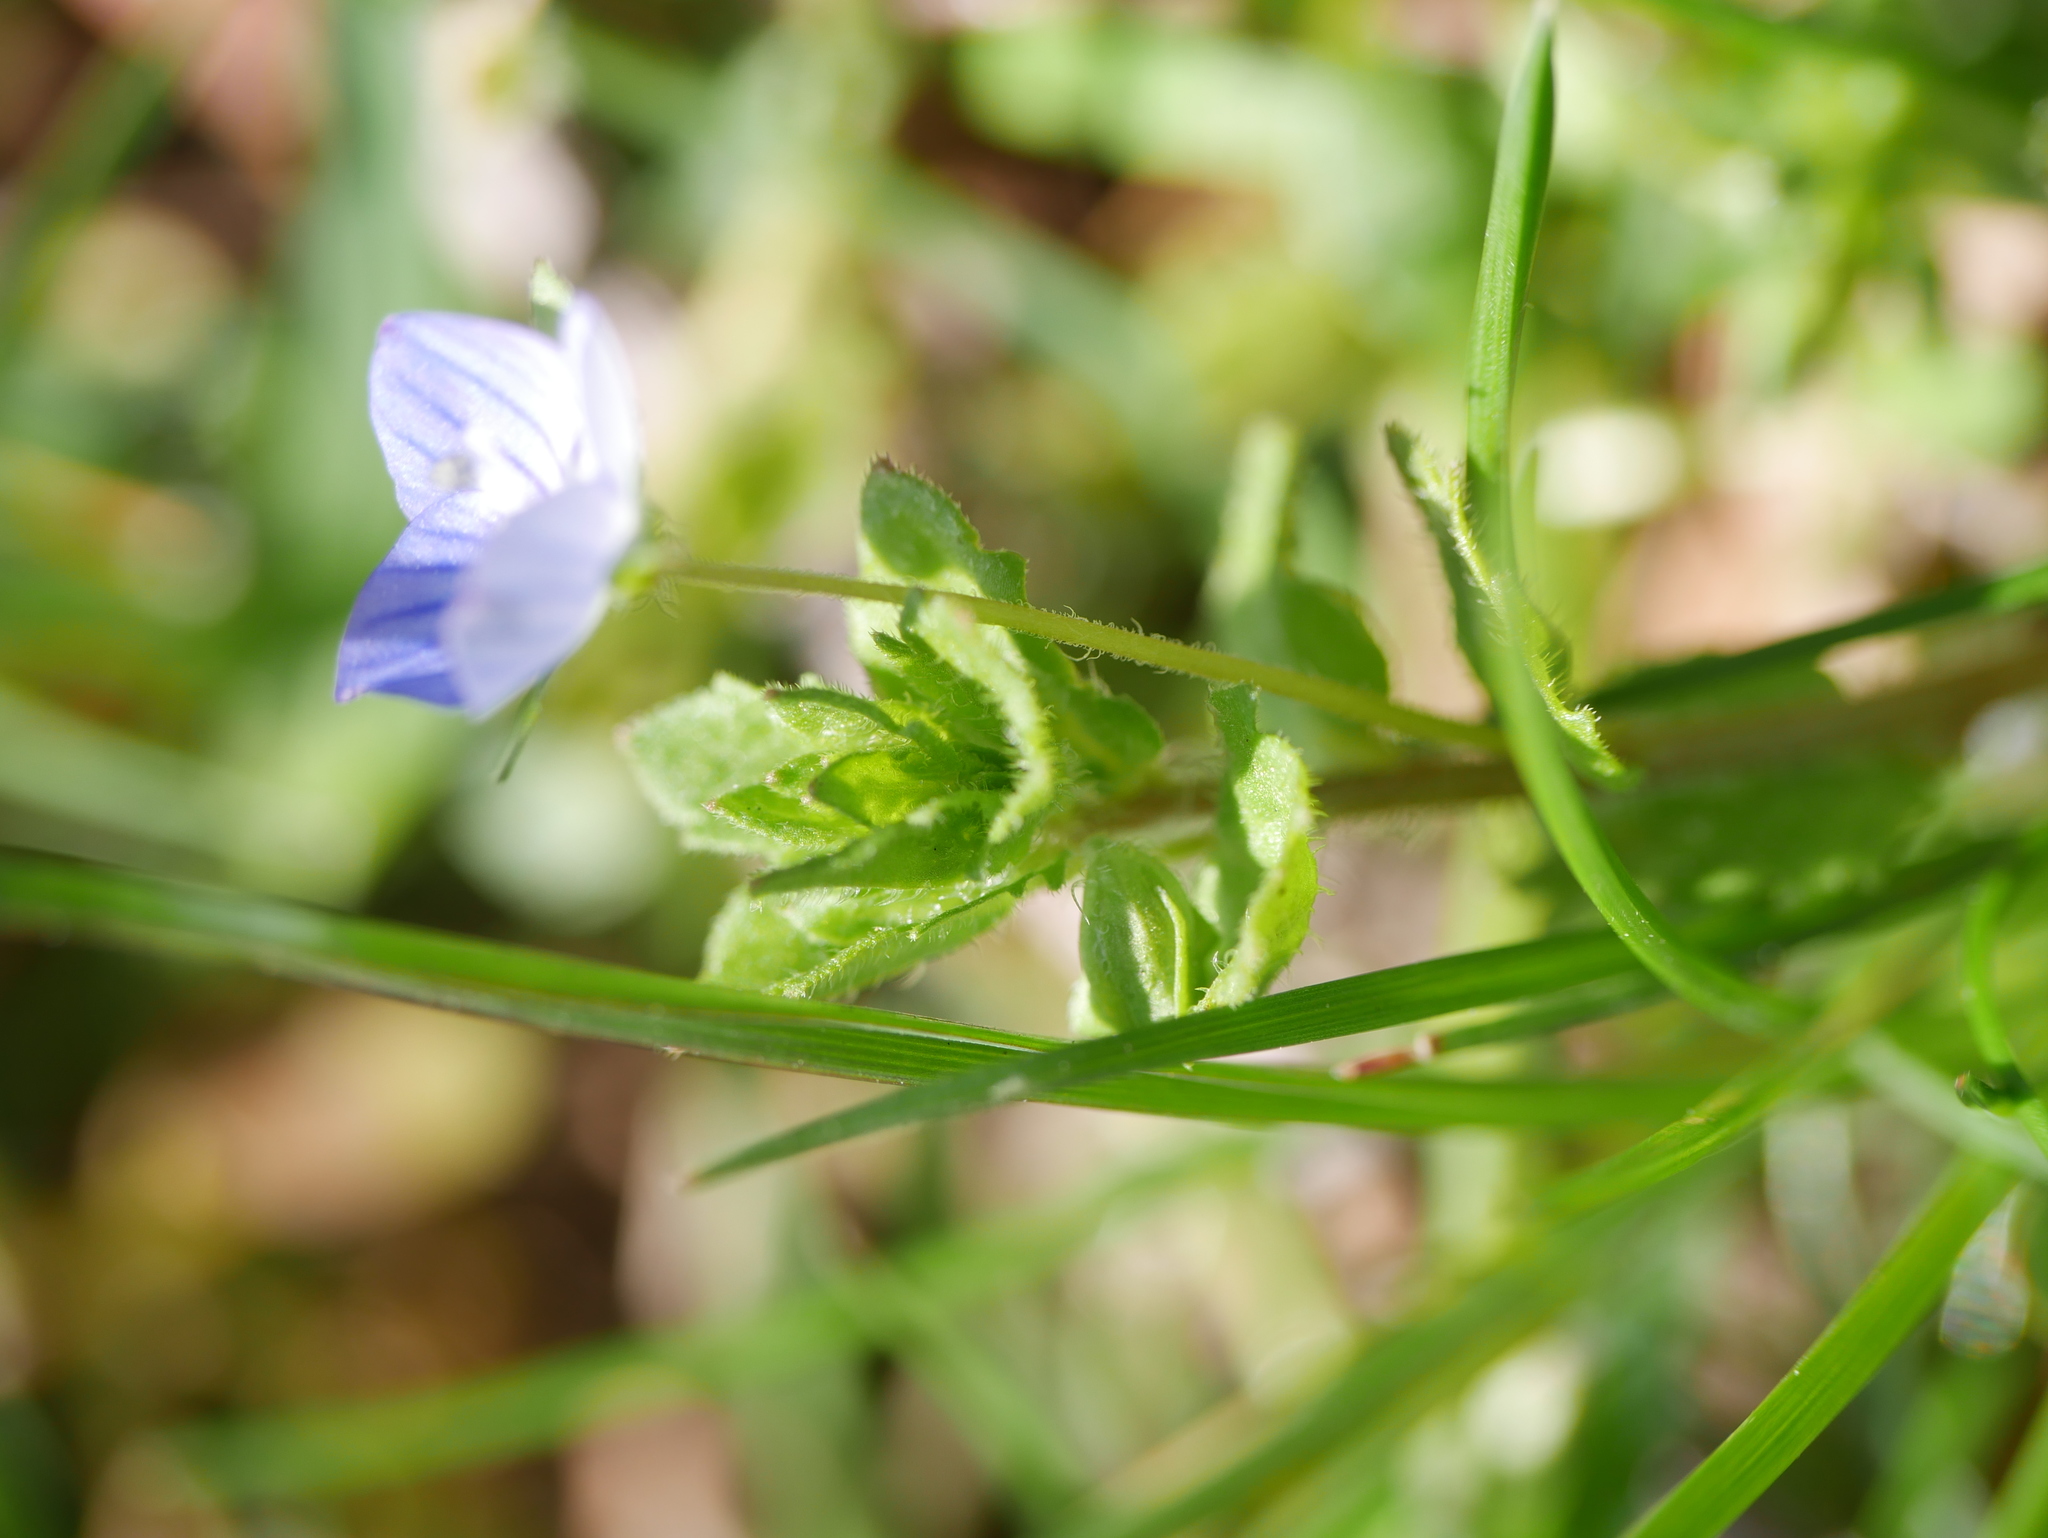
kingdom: Plantae
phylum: Tracheophyta
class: Magnoliopsida
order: Lamiales
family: Plantaginaceae
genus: Veronica
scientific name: Veronica persica
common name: Common field-speedwell
